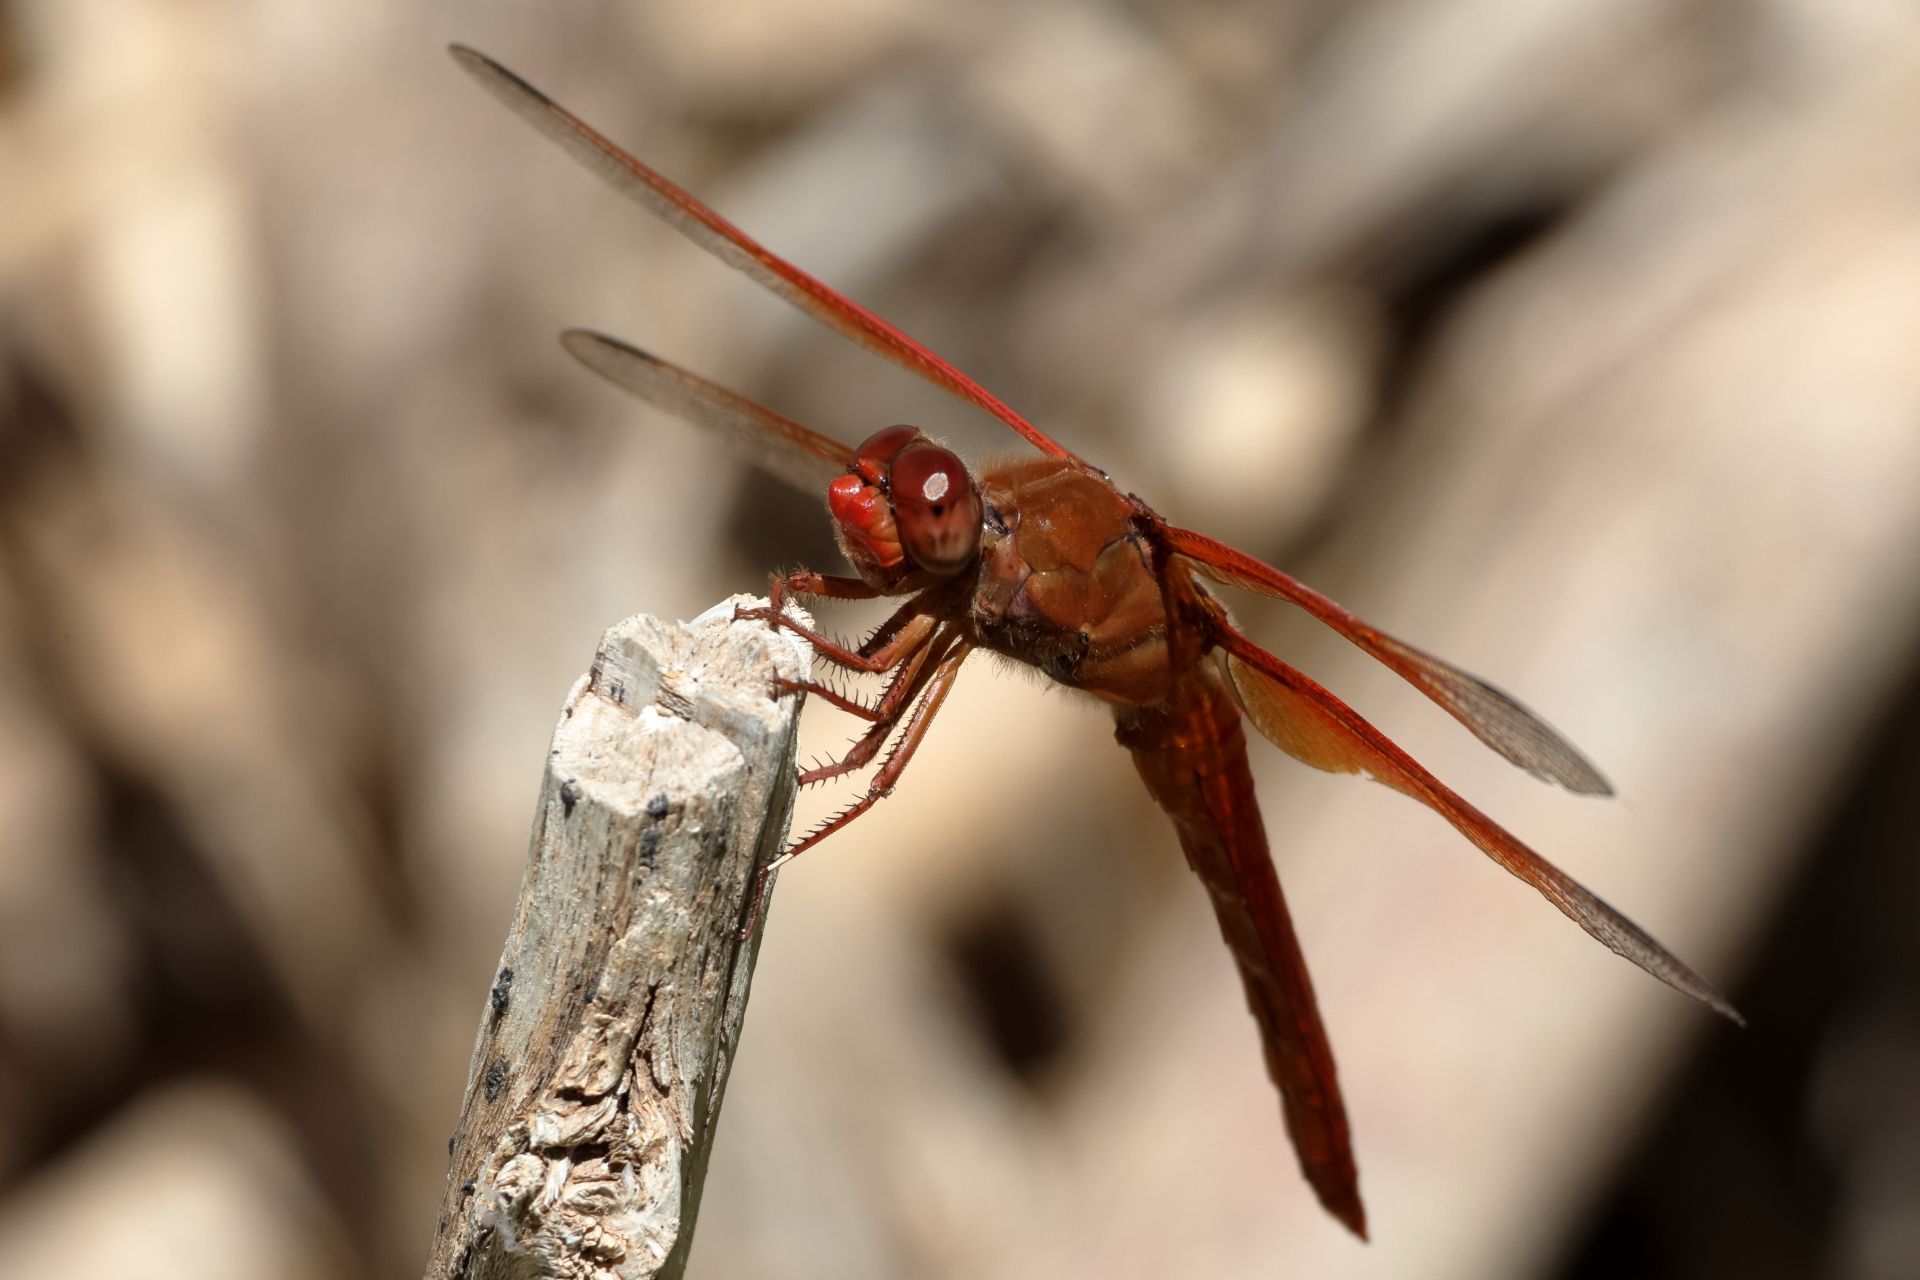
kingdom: Animalia
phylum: Arthropoda
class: Insecta
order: Odonata
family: Libellulidae
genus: Libellula
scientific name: Libellula saturata
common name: Flame skimmer
